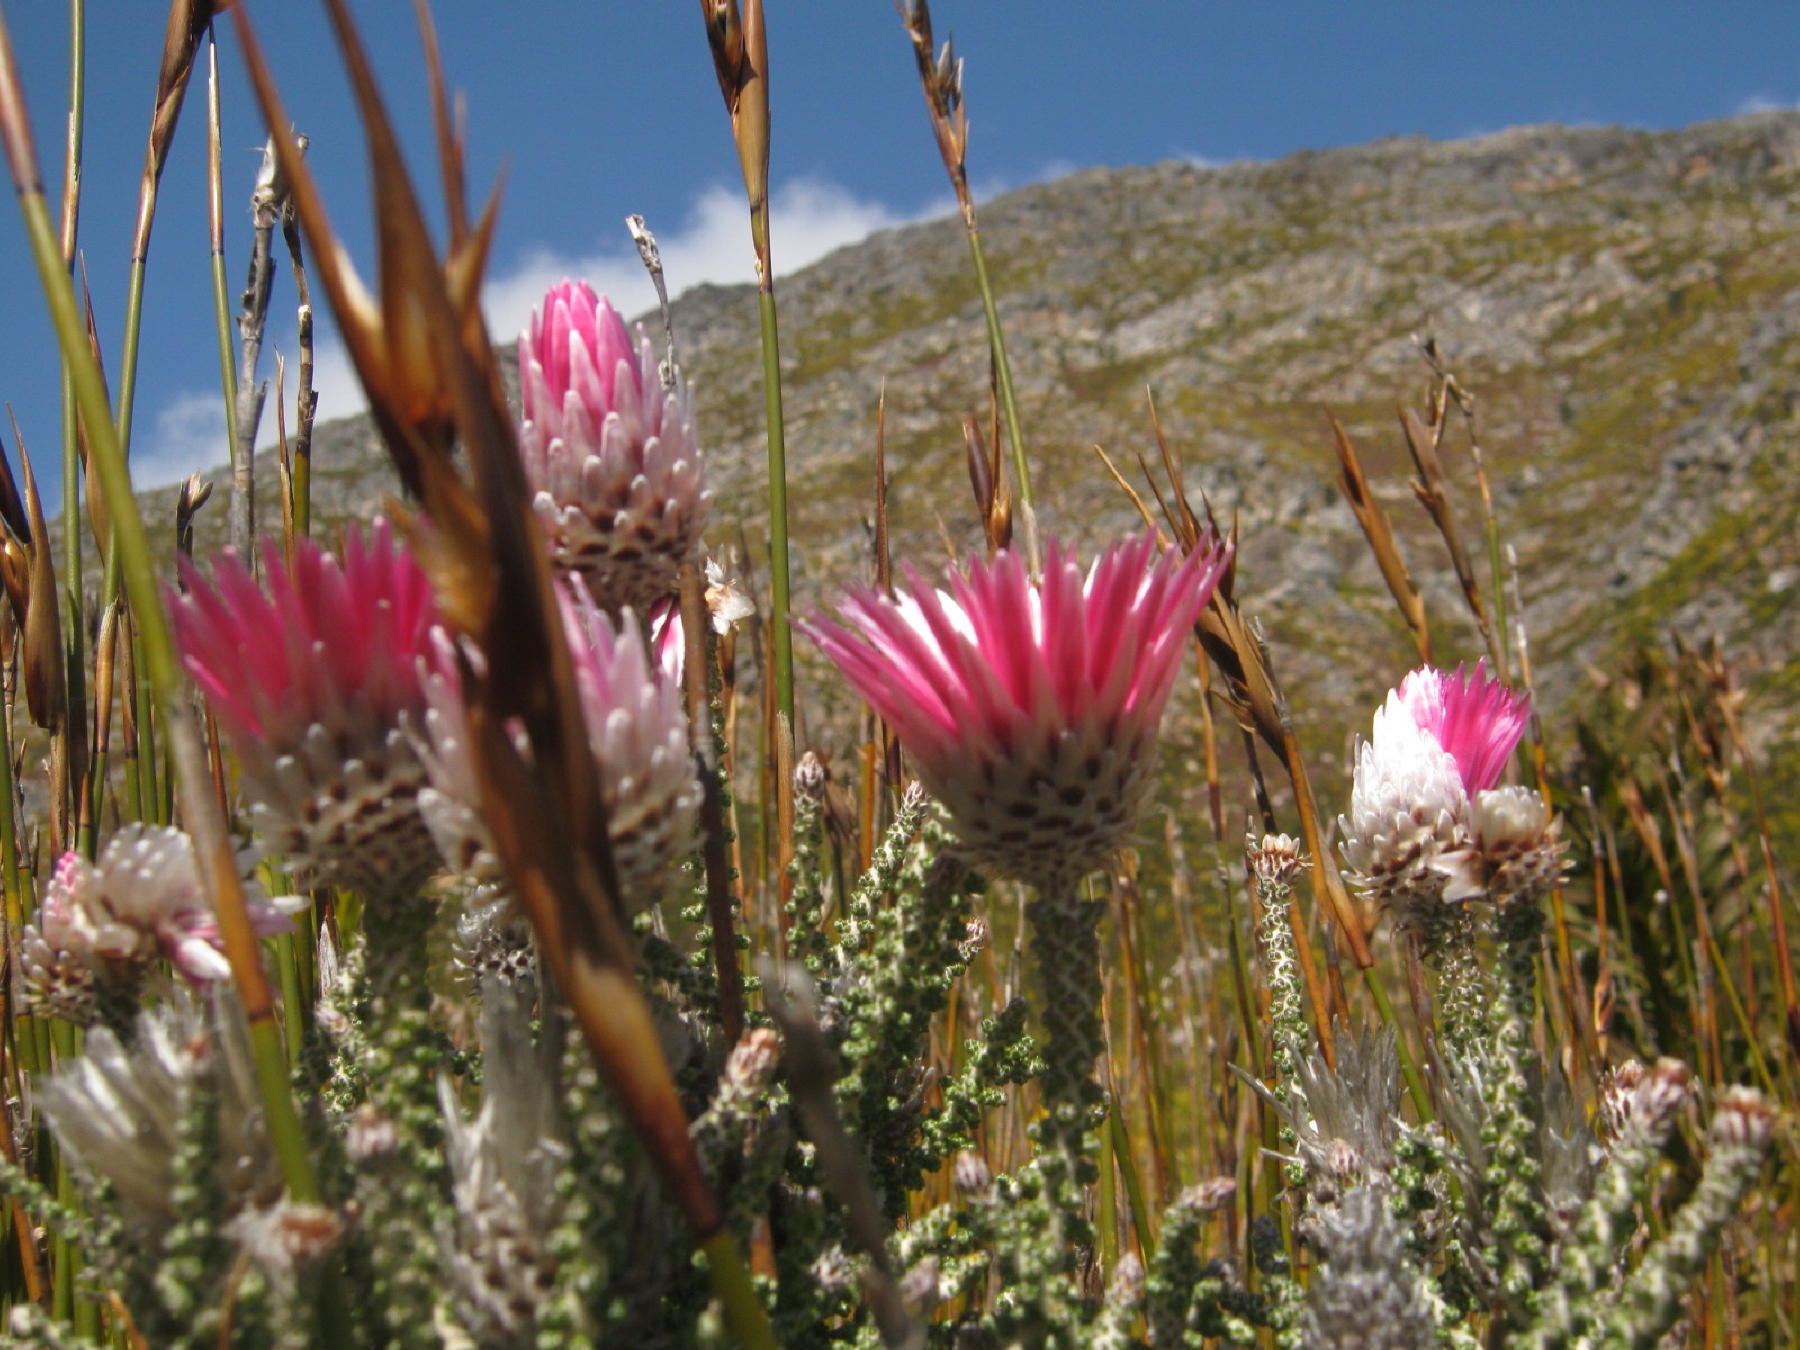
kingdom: Plantae
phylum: Tracheophyta
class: Magnoliopsida
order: Asterales
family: Asteraceae
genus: Phaenocoma
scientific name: Phaenocoma prolifera
